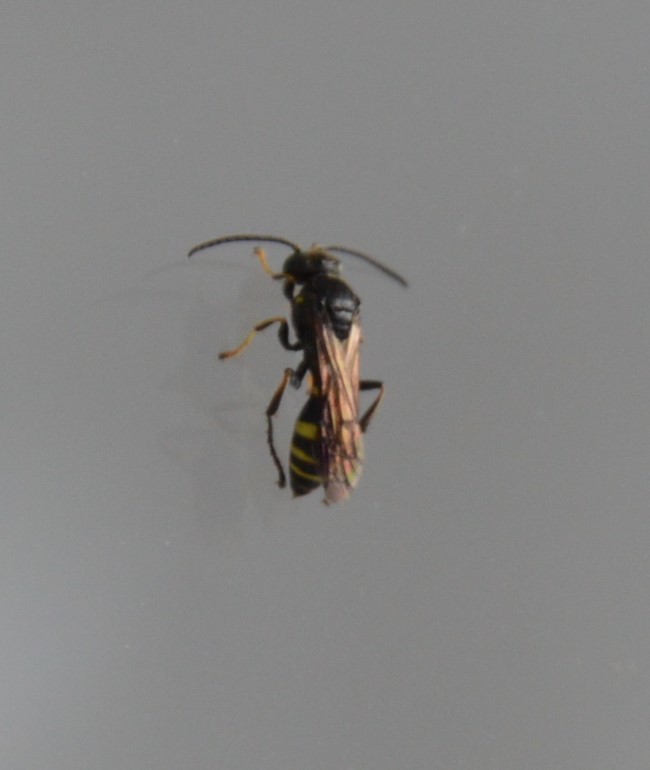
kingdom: Animalia
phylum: Arthropoda
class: Insecta
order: Hymenoptera
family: Crabronidae
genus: Gorytes
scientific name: Gorytes
